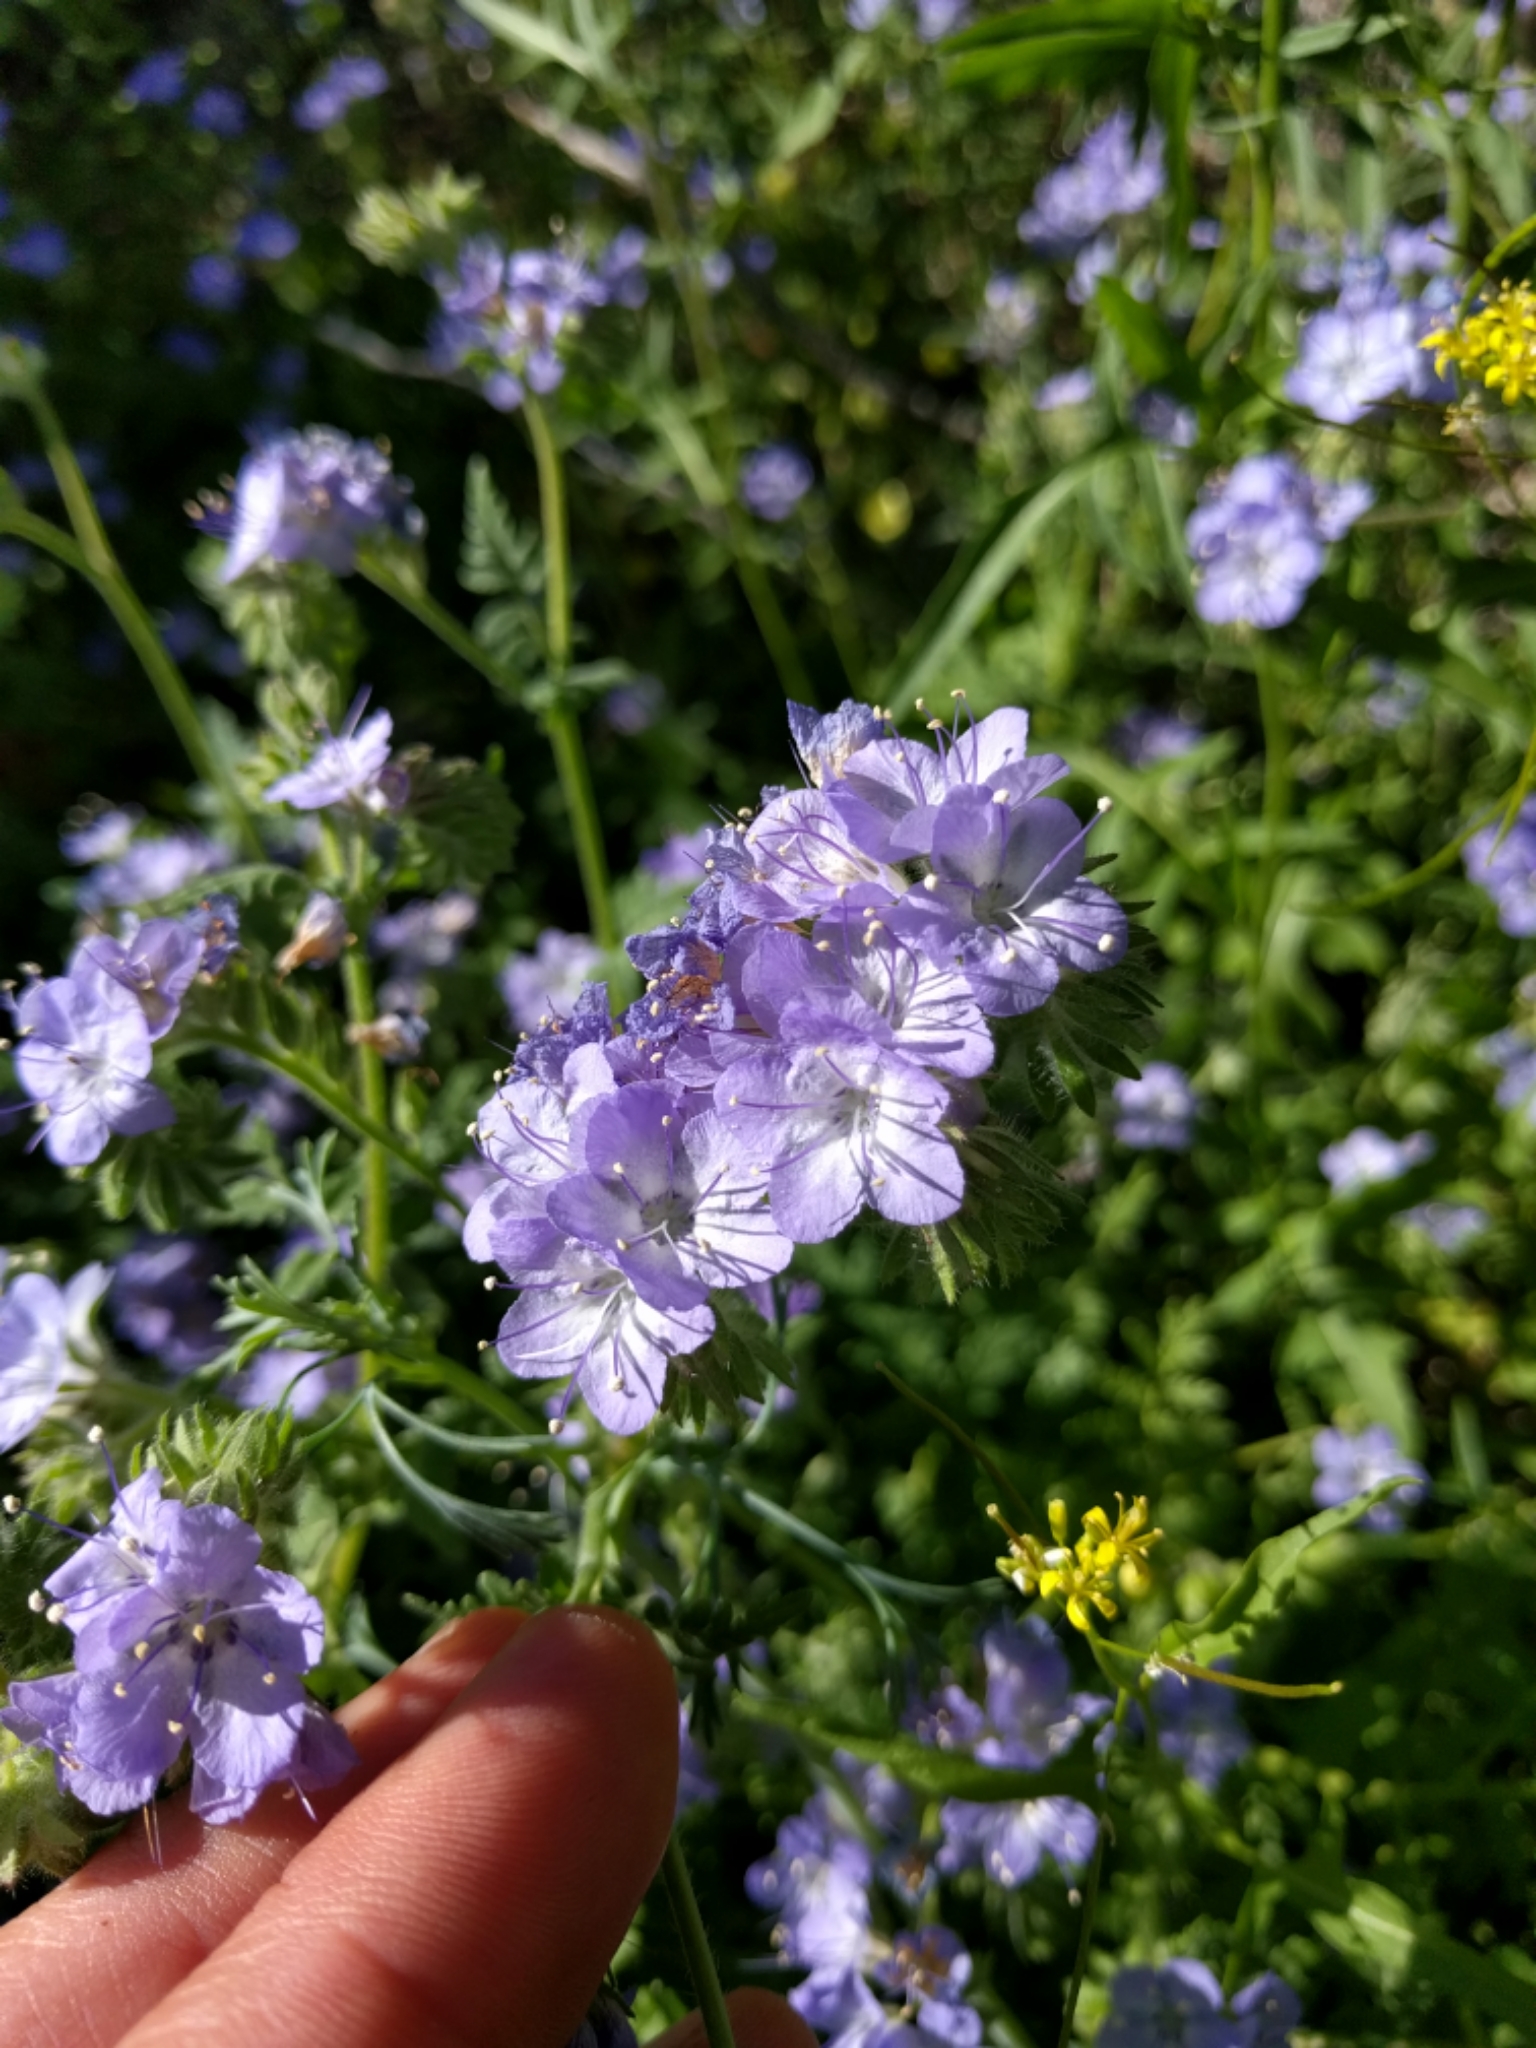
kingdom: Plantae
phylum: Tracheophyta
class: Magnoliopsida
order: Boraginales
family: Hydrophyllaceae
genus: Phacelia
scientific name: Phacelia distans
